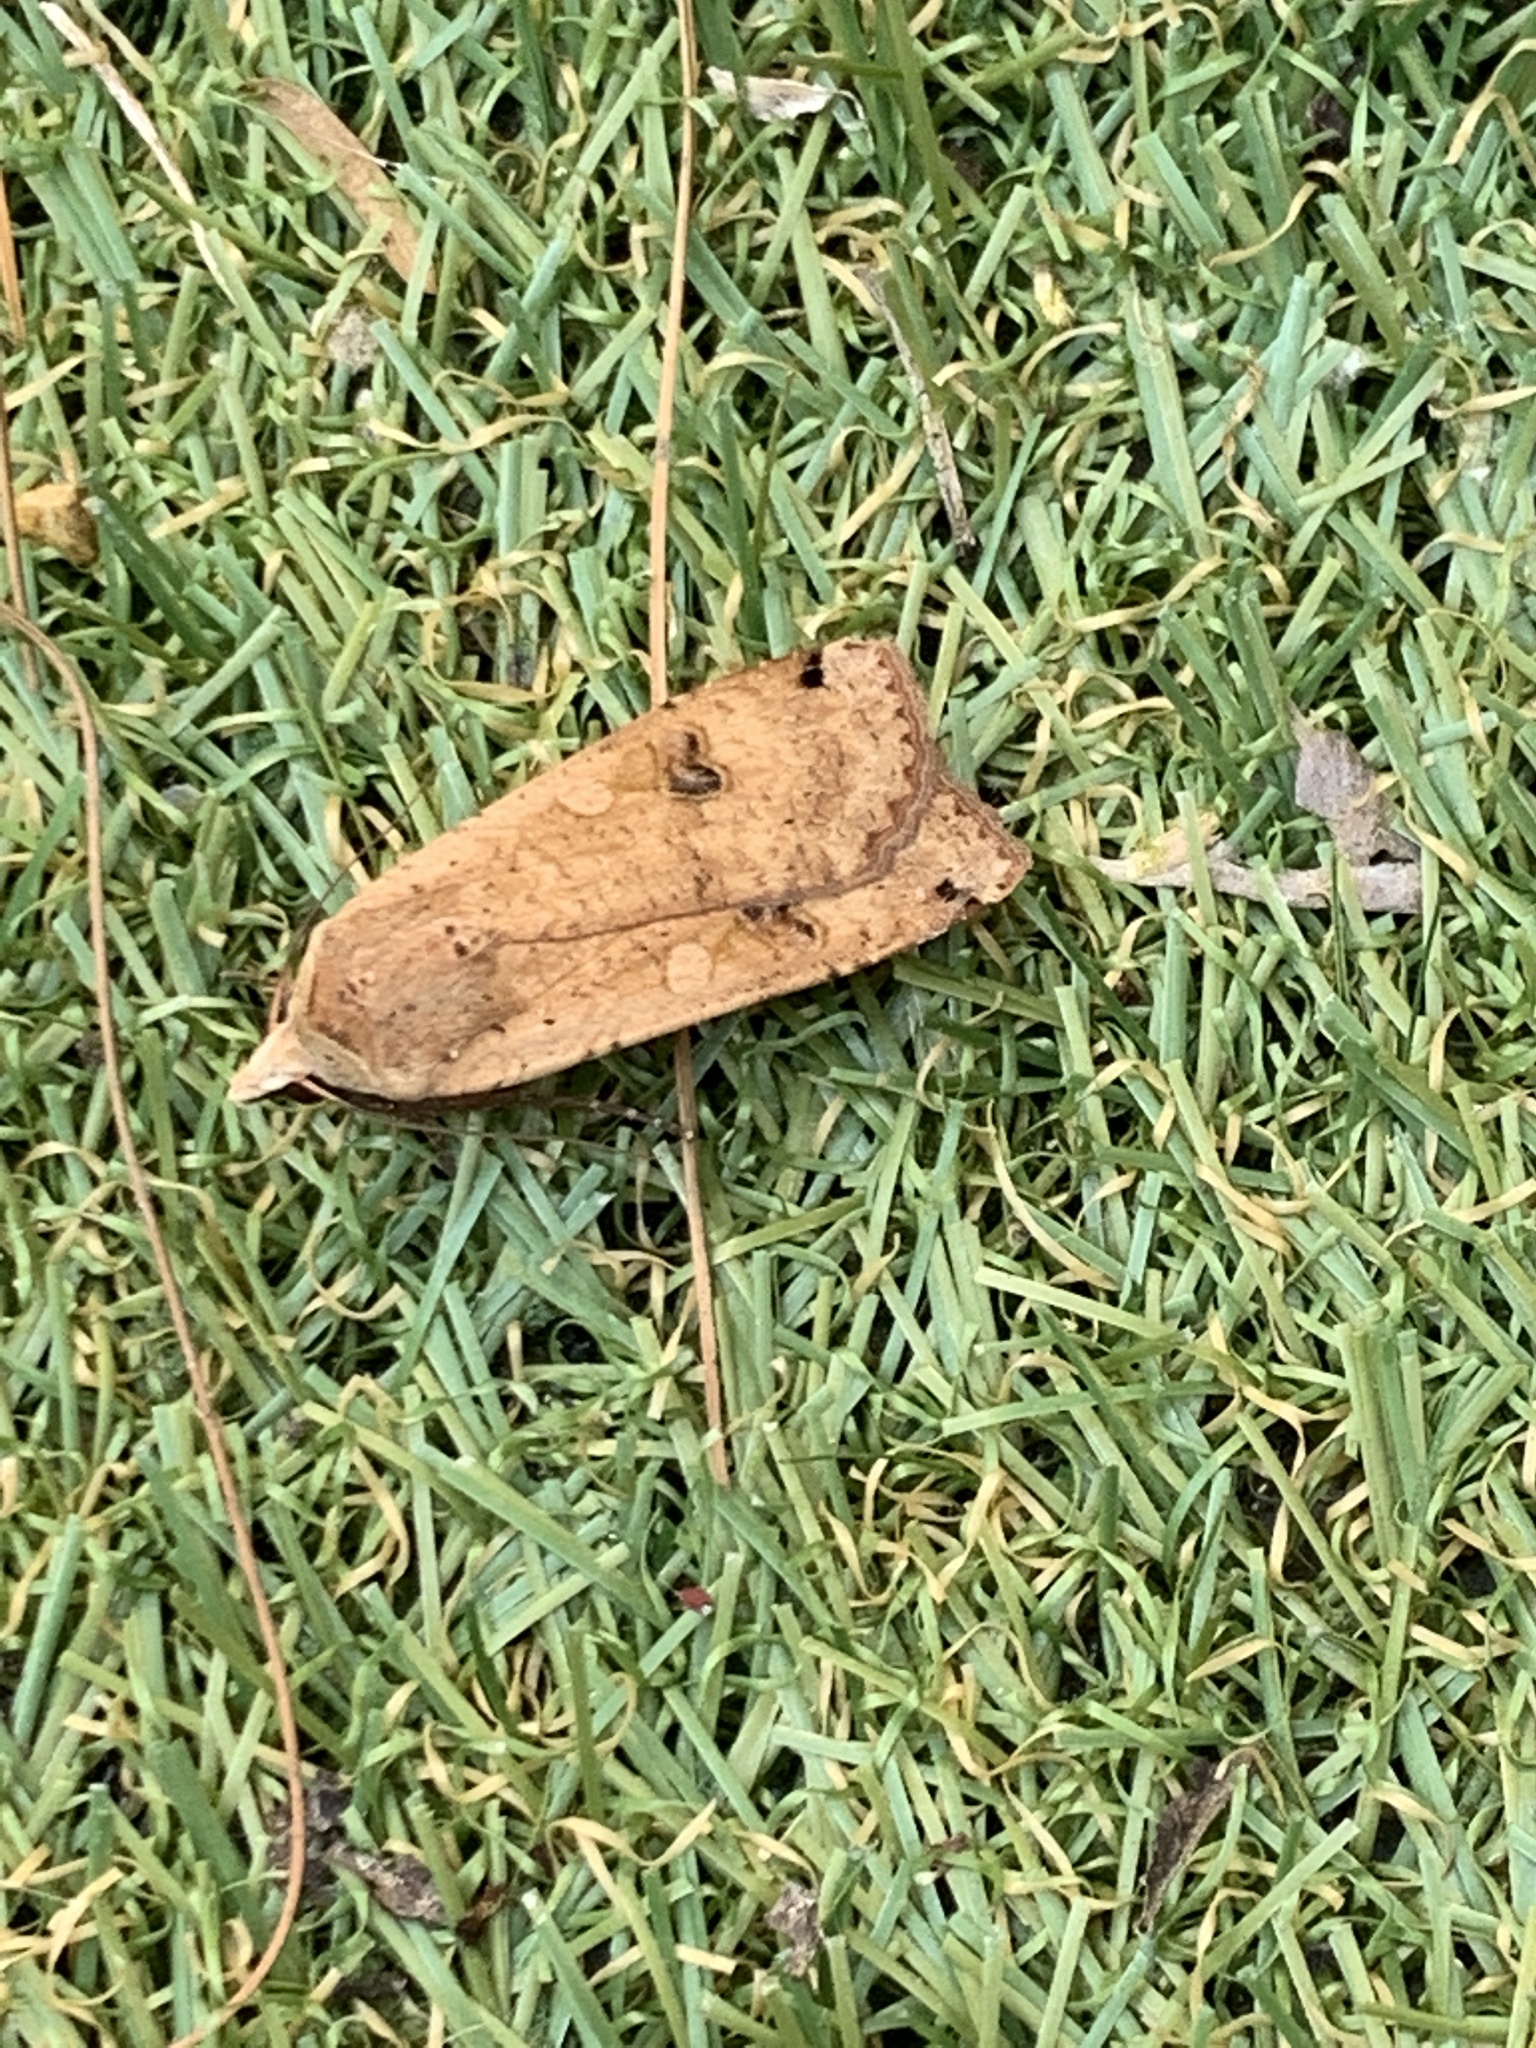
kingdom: Animalia
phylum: Arthropoda
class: Insecta
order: Lepidoptera
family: Noctuidae
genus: Noctua
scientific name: Noctua pronuba
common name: Large yellow underwing
